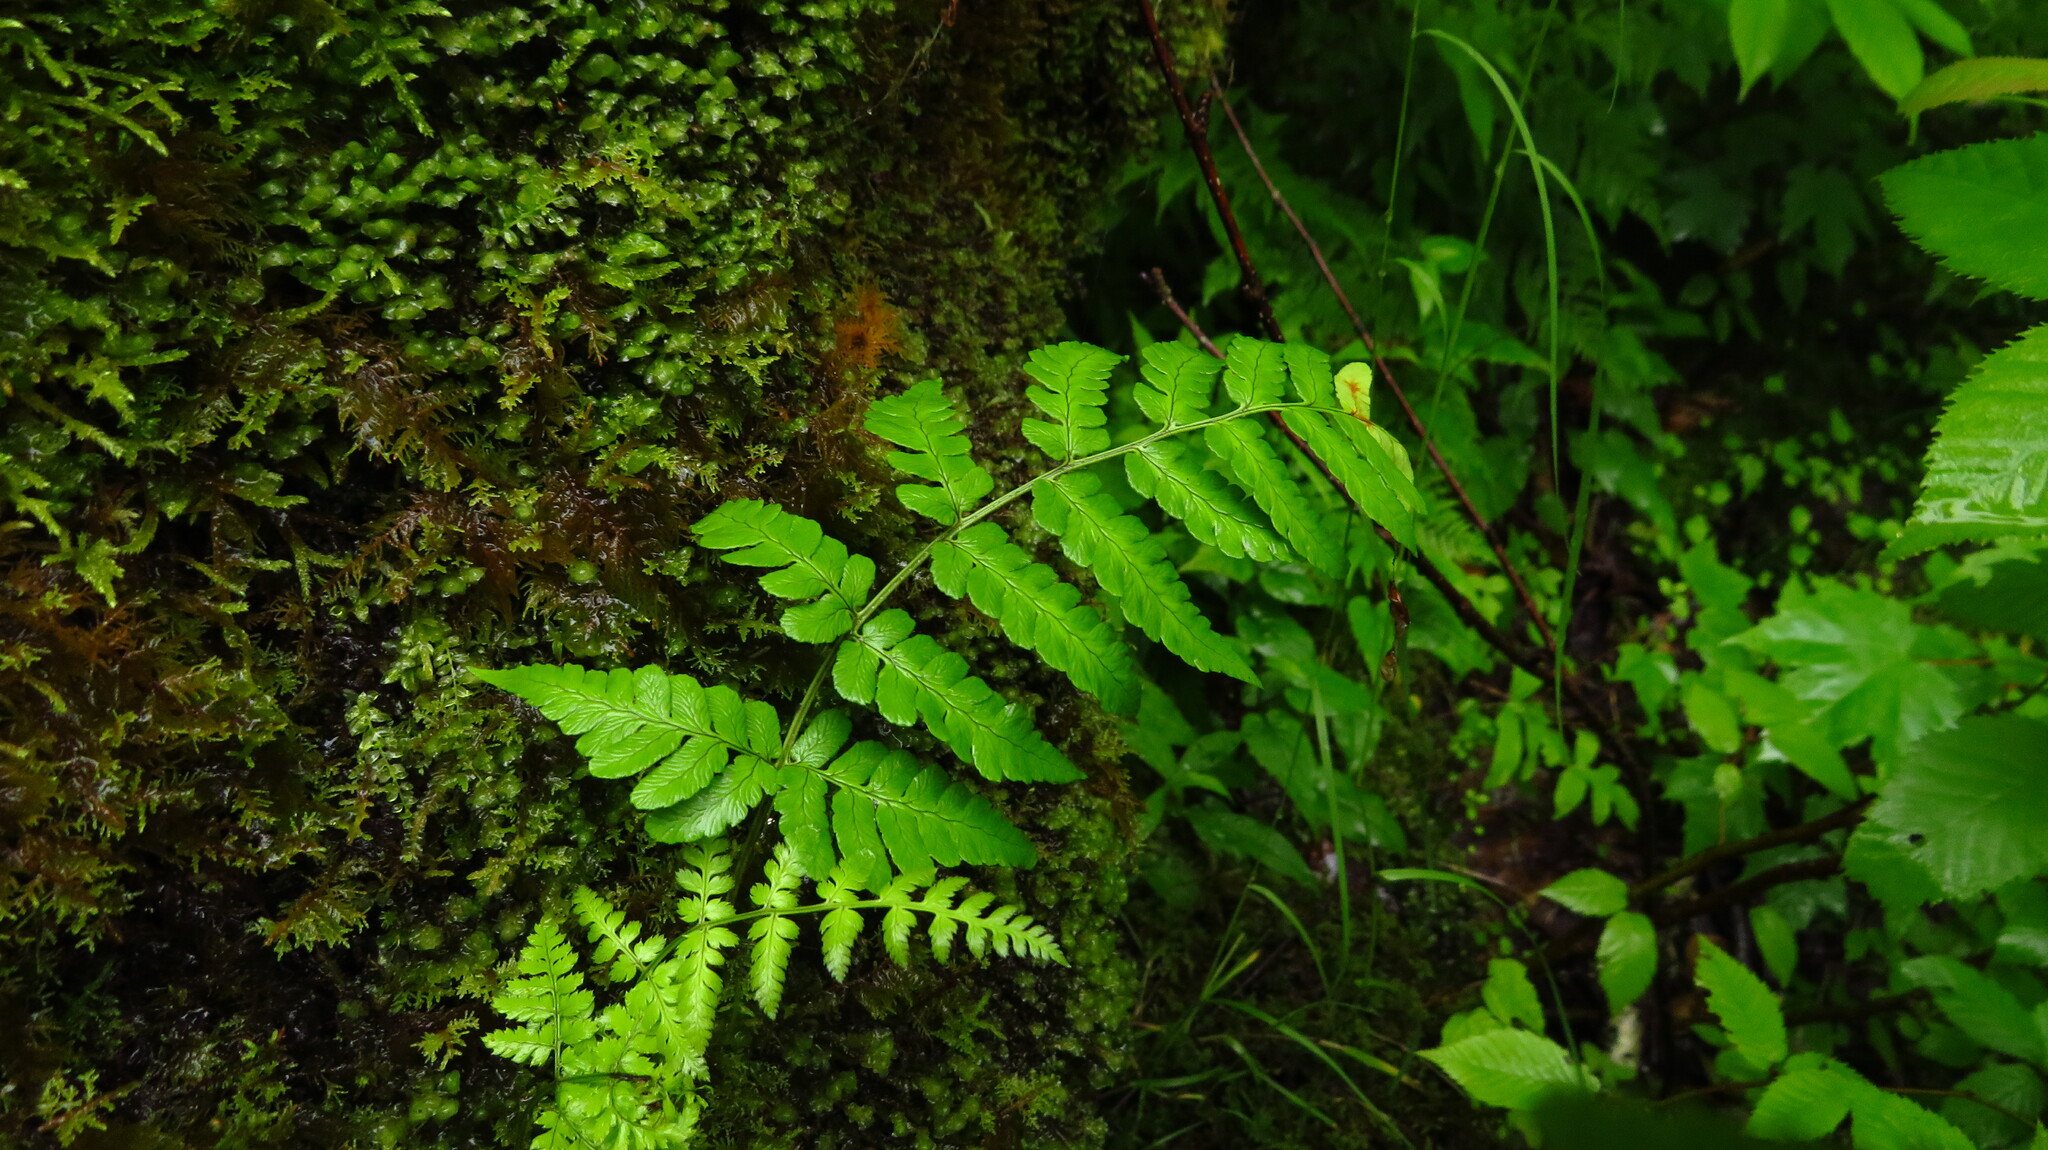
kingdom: Plantae
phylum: Tracheophyta
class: Polypodiopsida
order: Polypodiales
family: Dryopteridaceae
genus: Dryopteris
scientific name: Dryopteris marginalis
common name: Marginal wood fern
